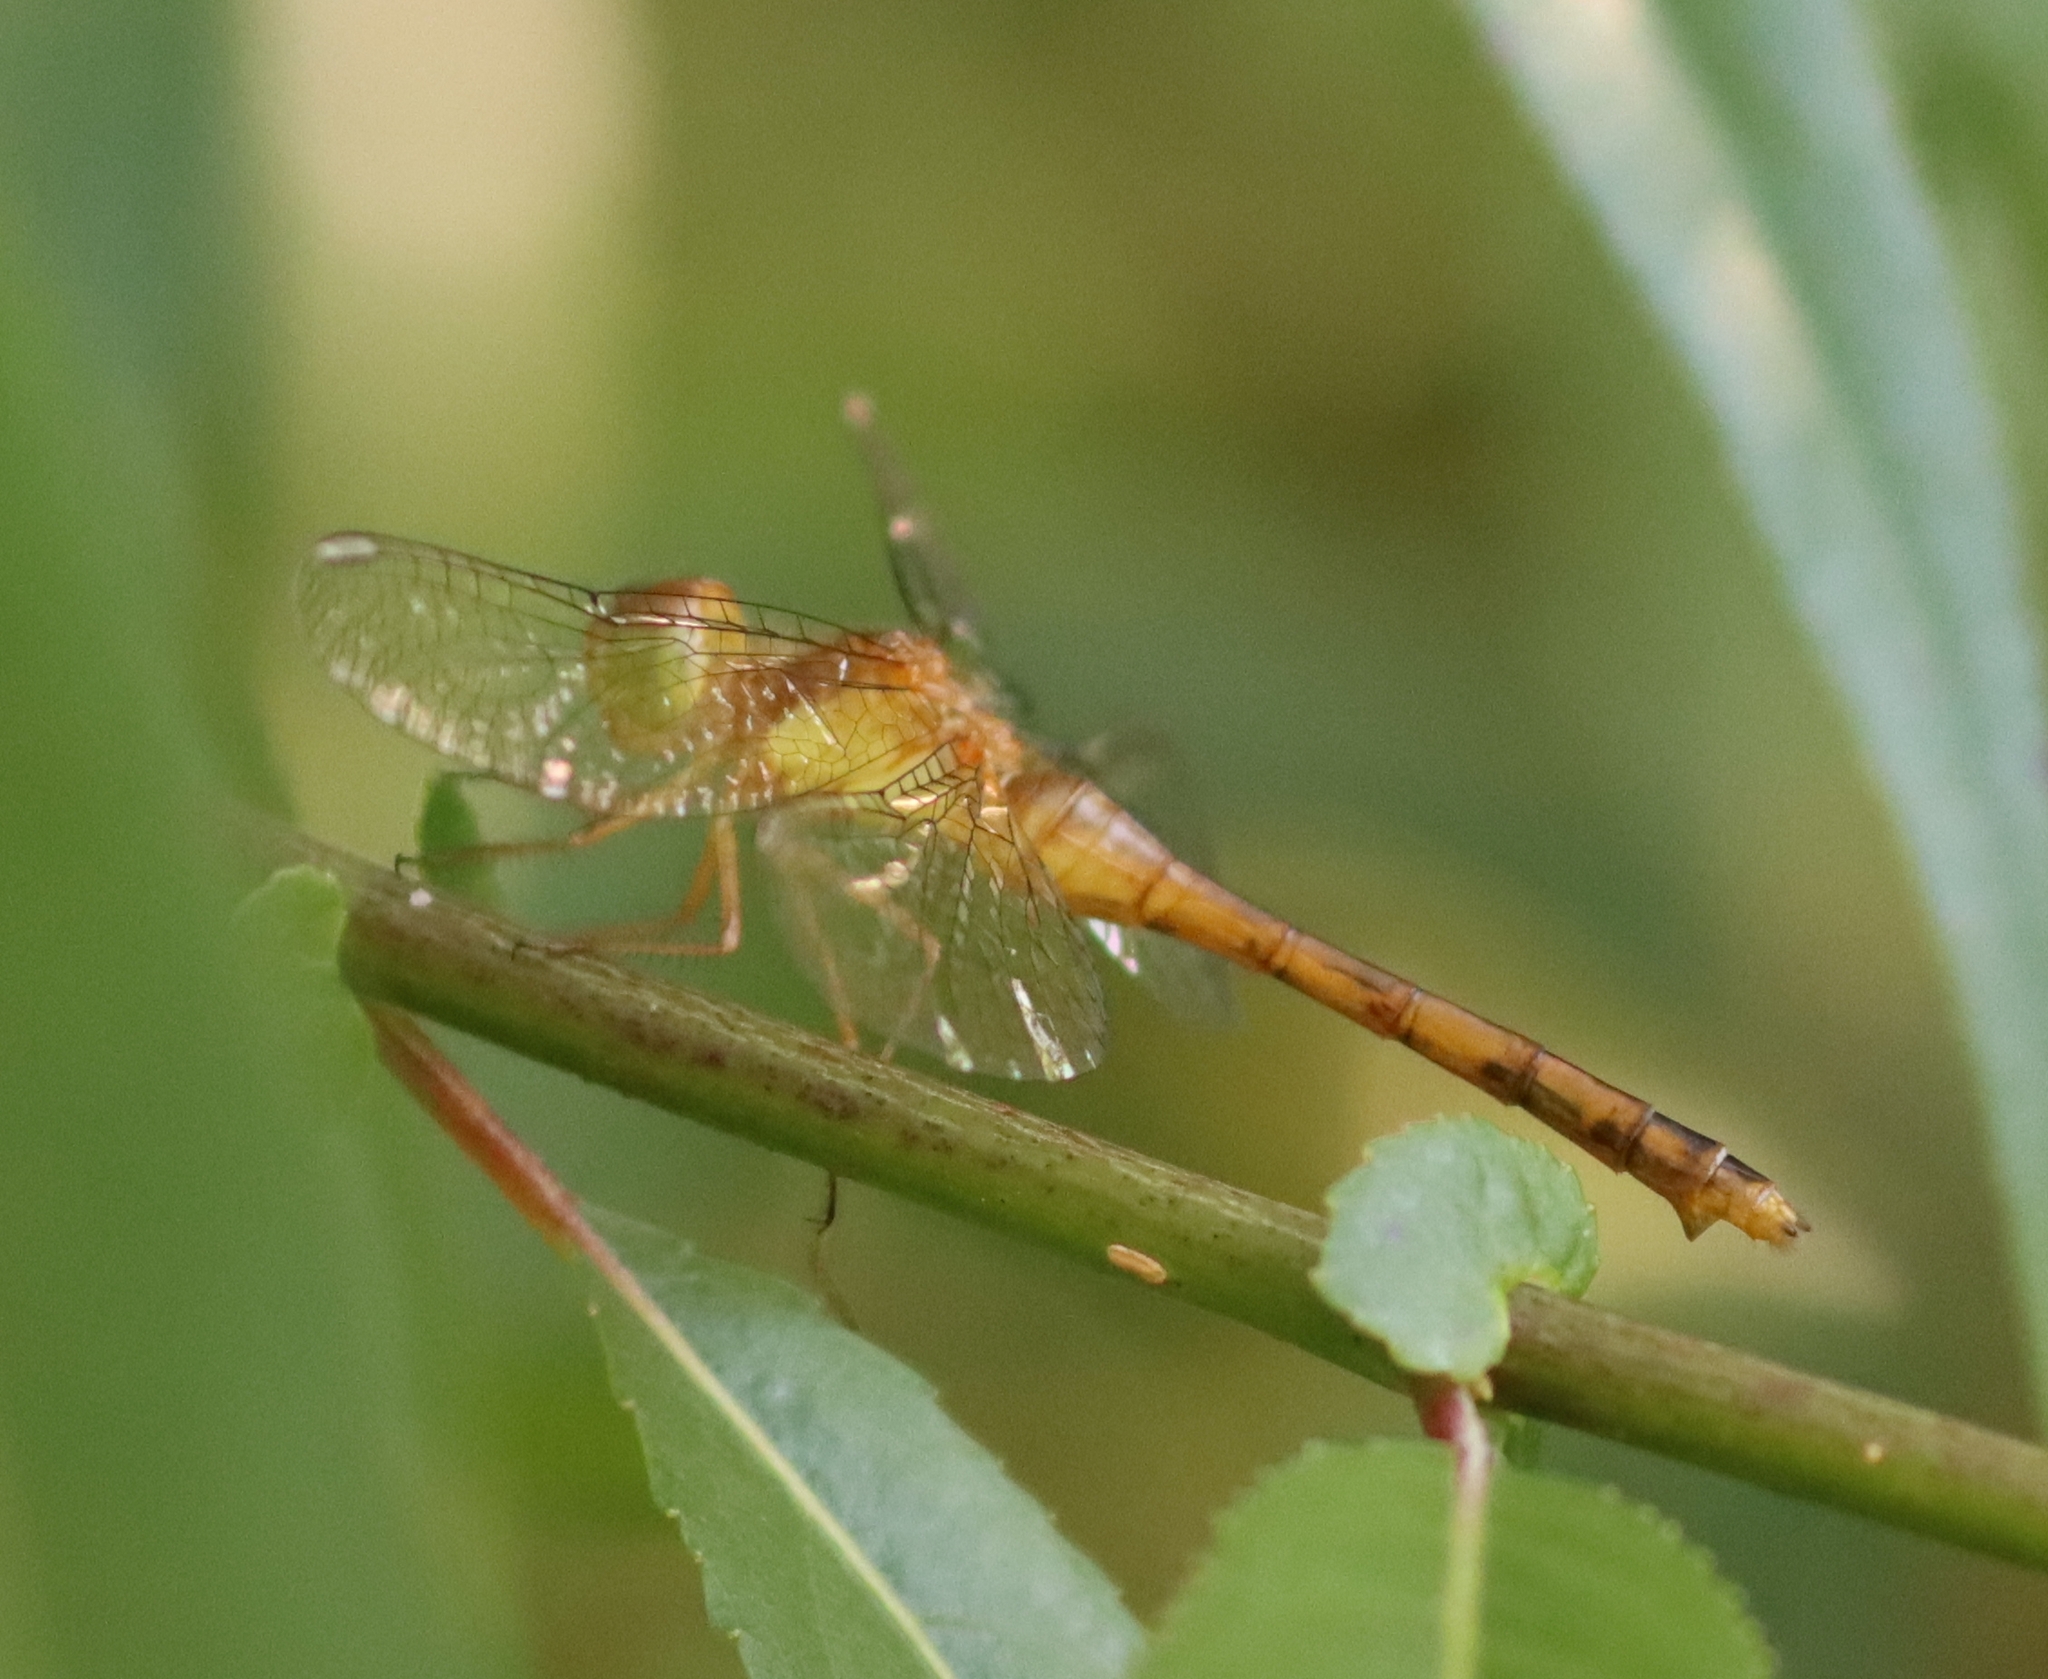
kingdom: Animalia
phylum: Arthropoda
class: Insecta
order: Odonata
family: Libellulidae
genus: Sympetrum
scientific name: Sympetrum vicinum
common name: Autumn meadowhawk
